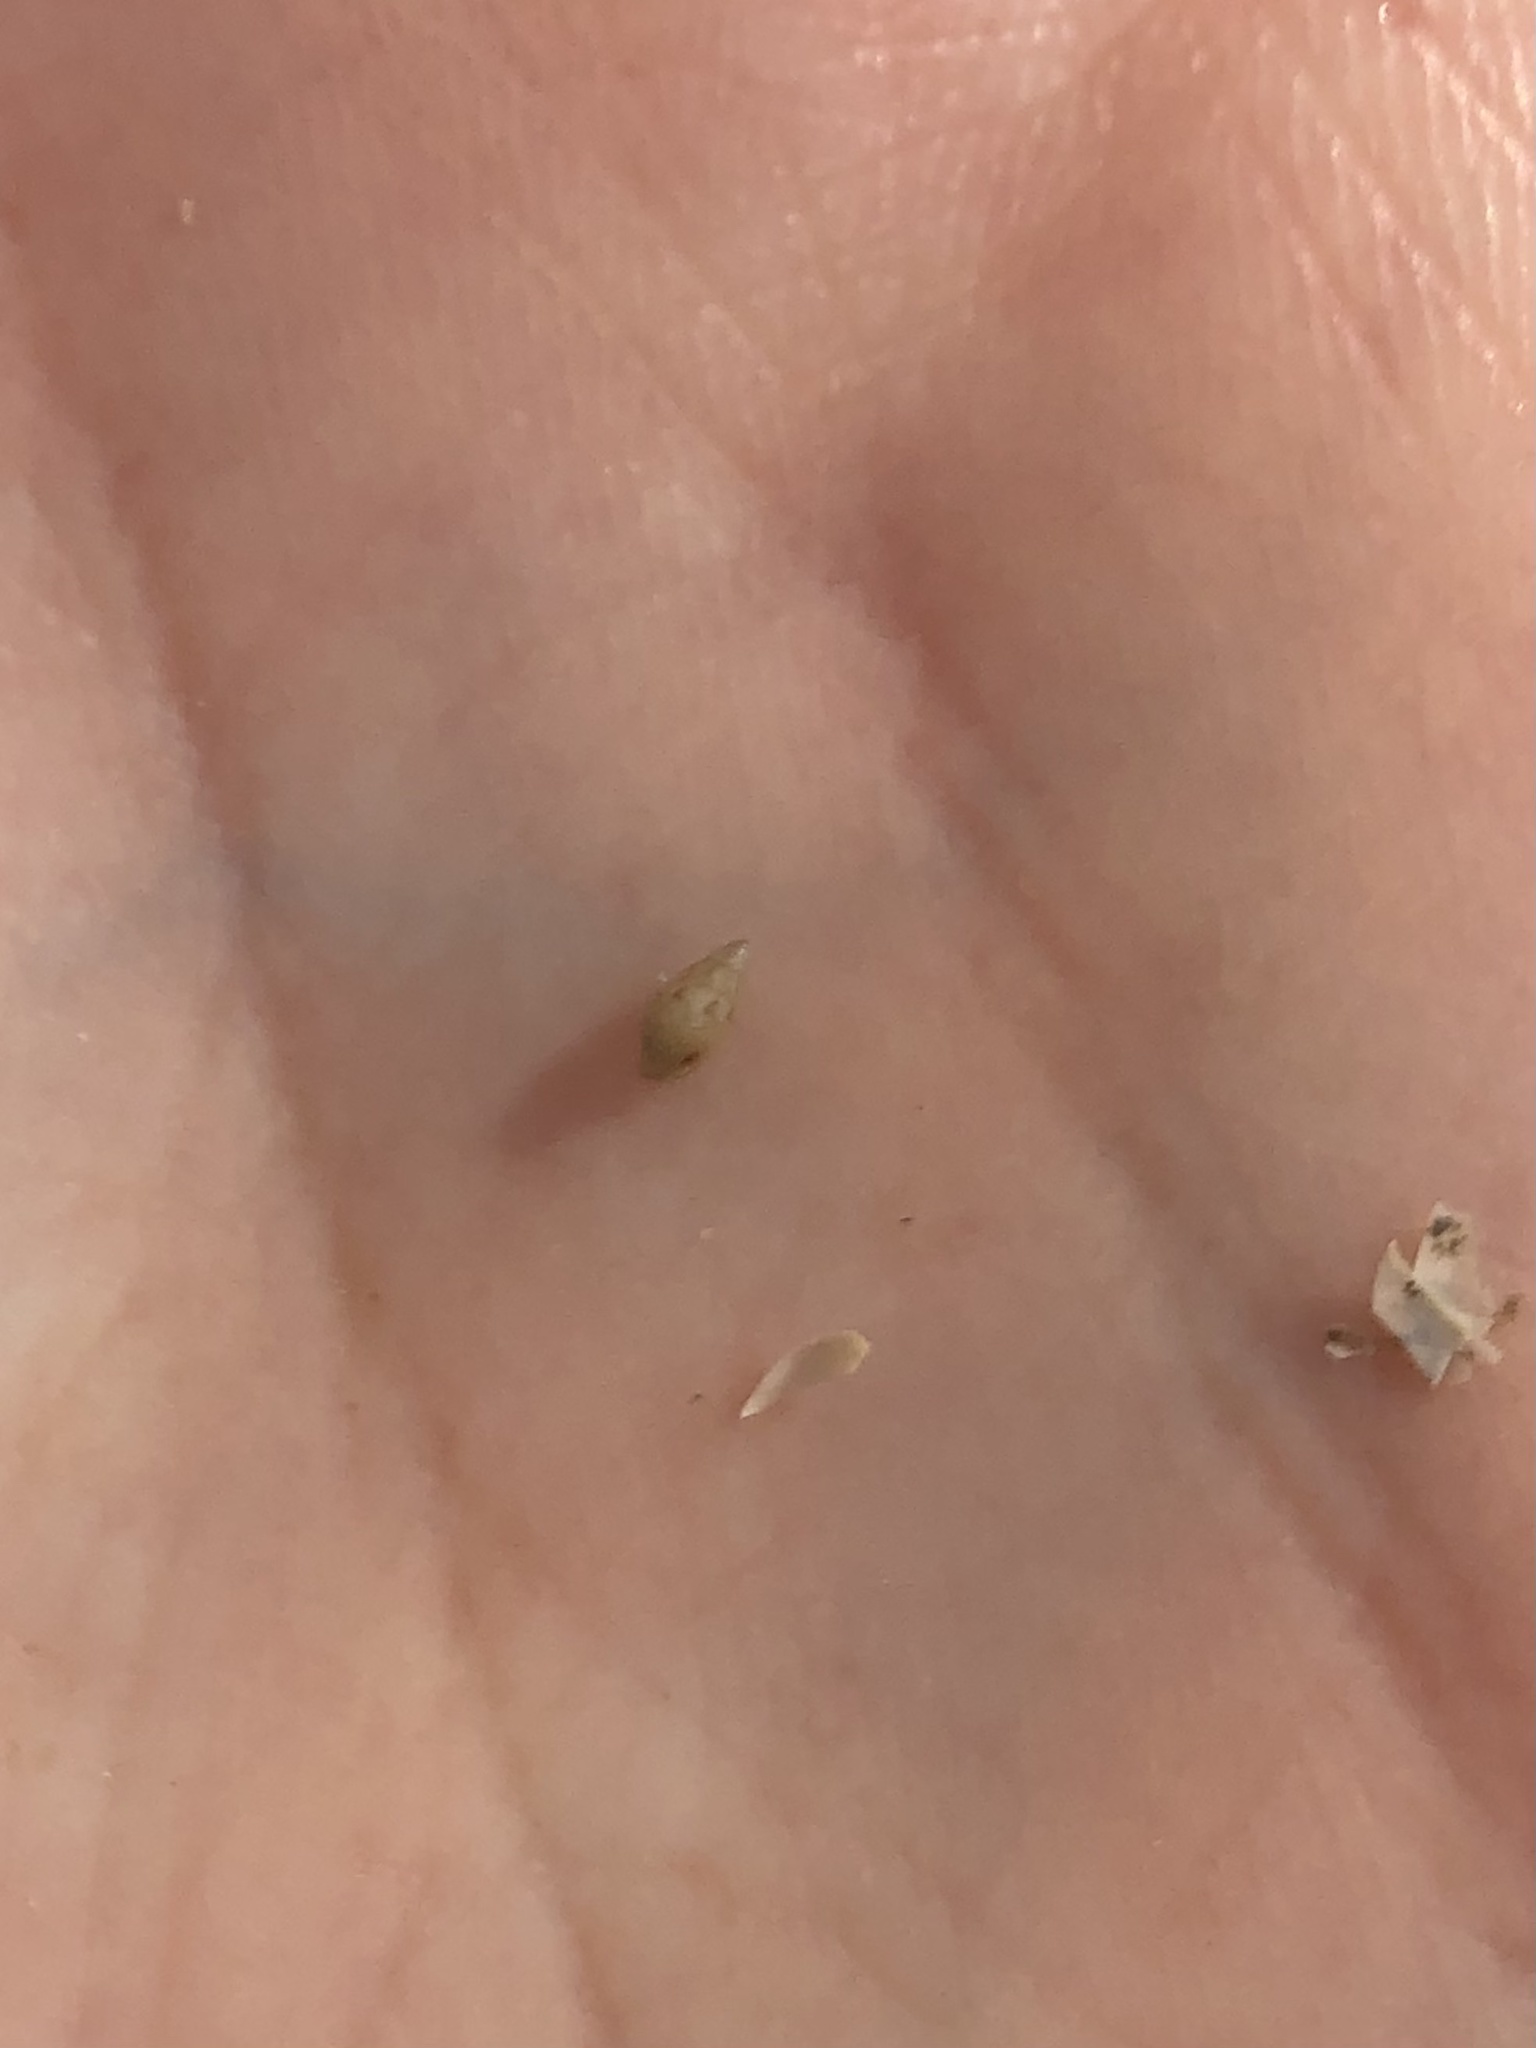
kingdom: Animalia
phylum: Mollusca
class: Gastropoda
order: Neogastropoda
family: Columbellidae
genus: Astyris
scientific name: Astyris lunata
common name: Lunar dovesnail
